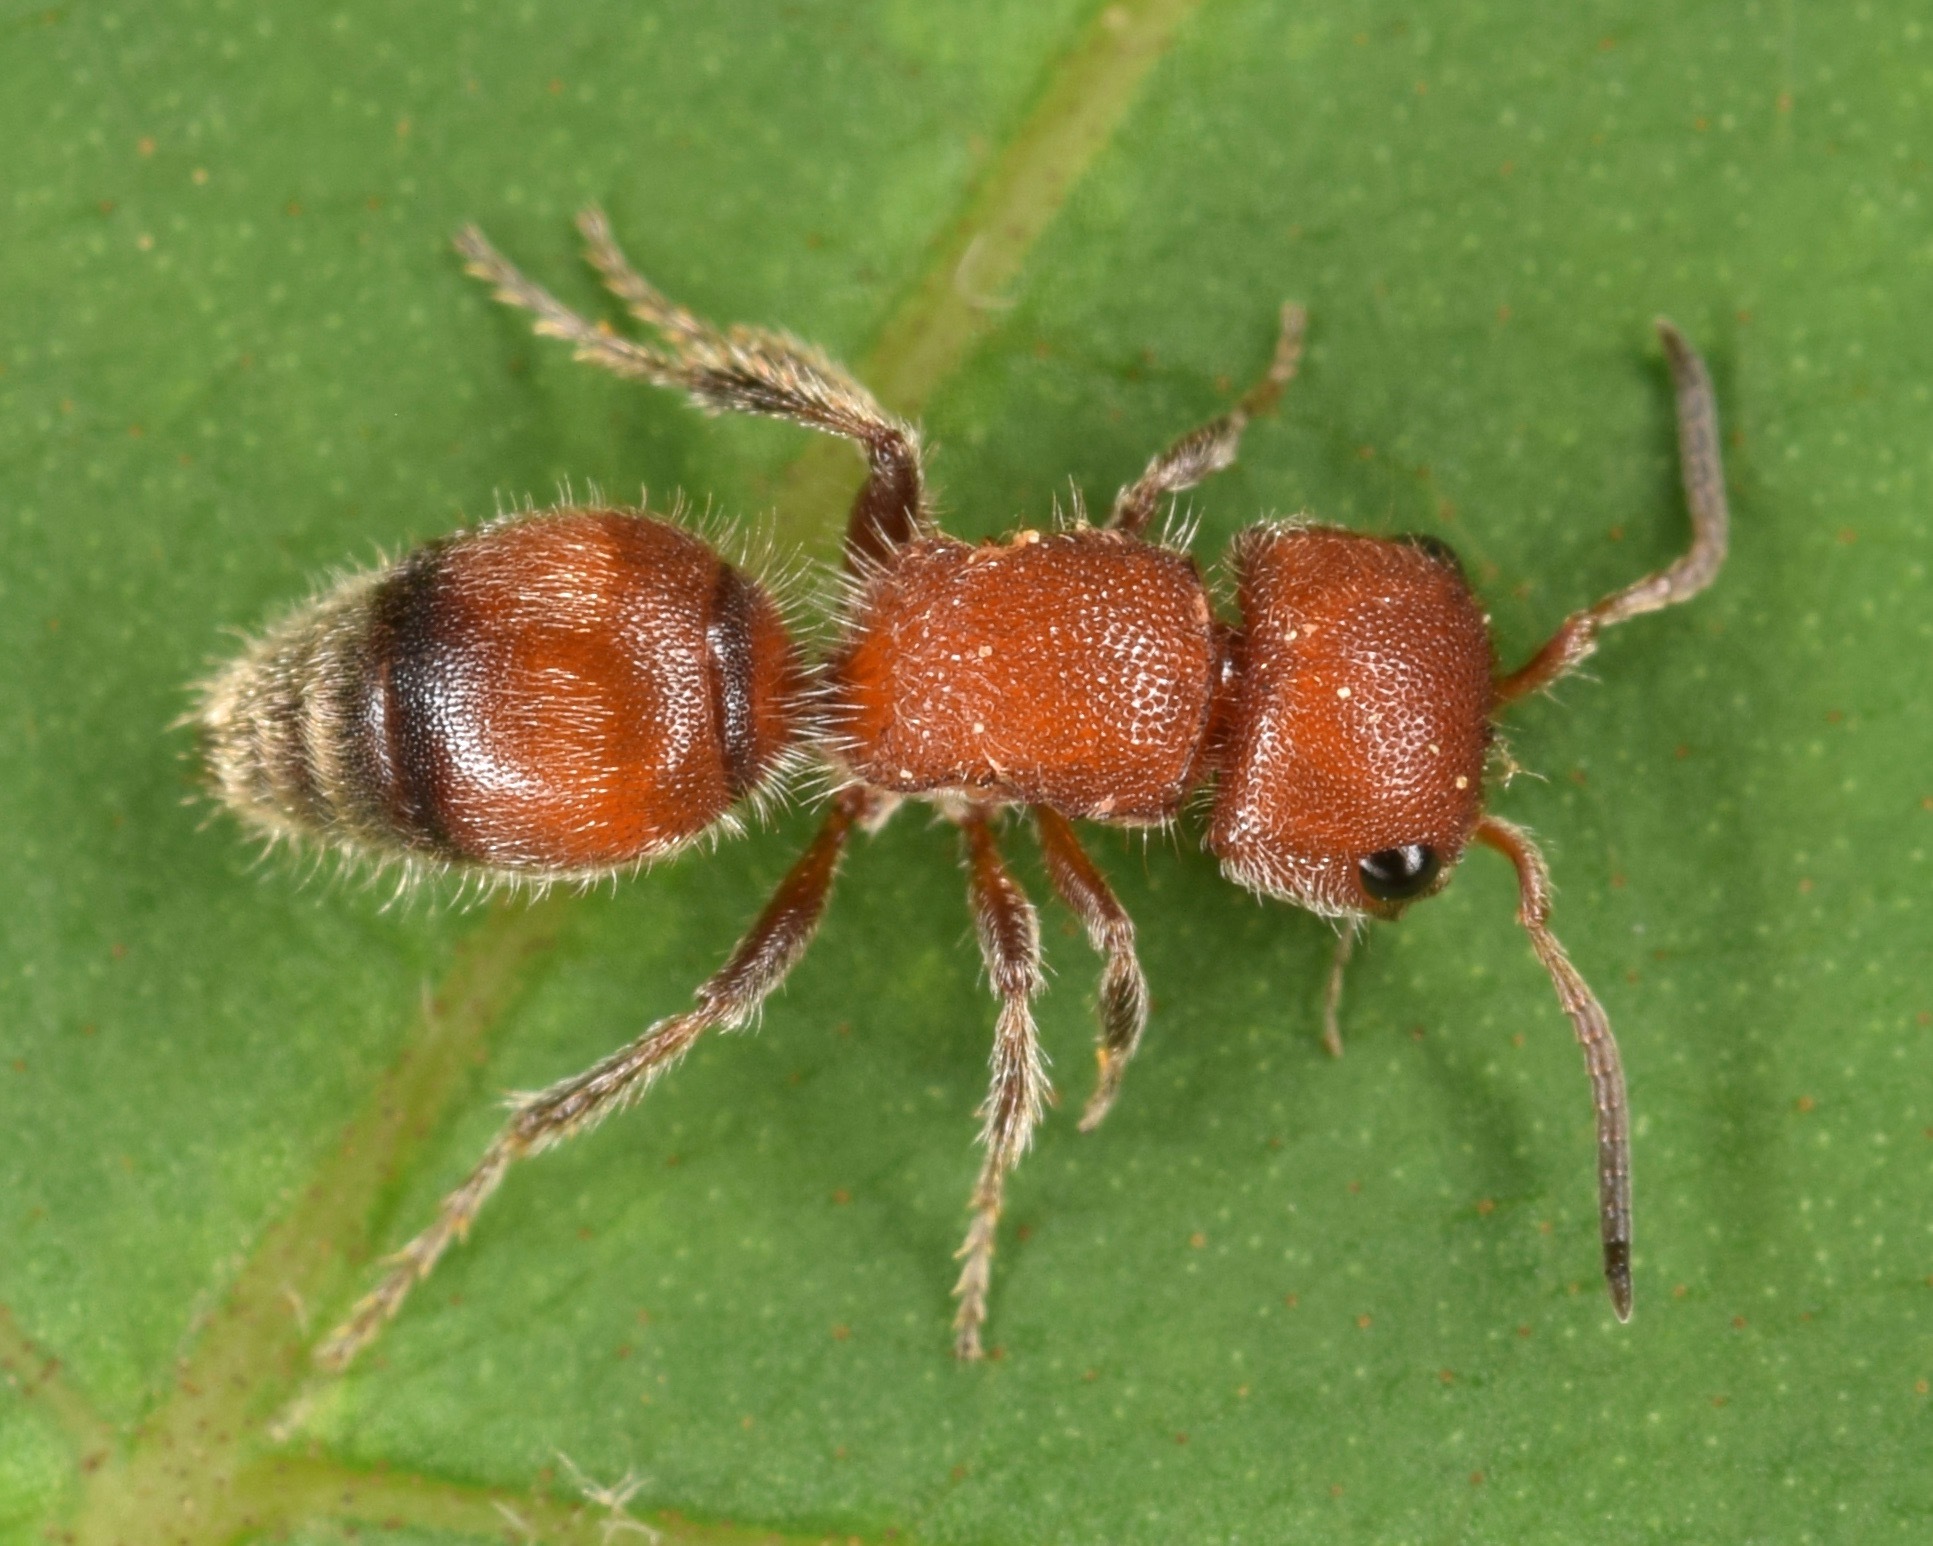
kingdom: Animalia
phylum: Arthropoda
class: Insecta
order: Hymenoptera
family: Mutillidae
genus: Pseudomethoca
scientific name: Pseudomethoca
